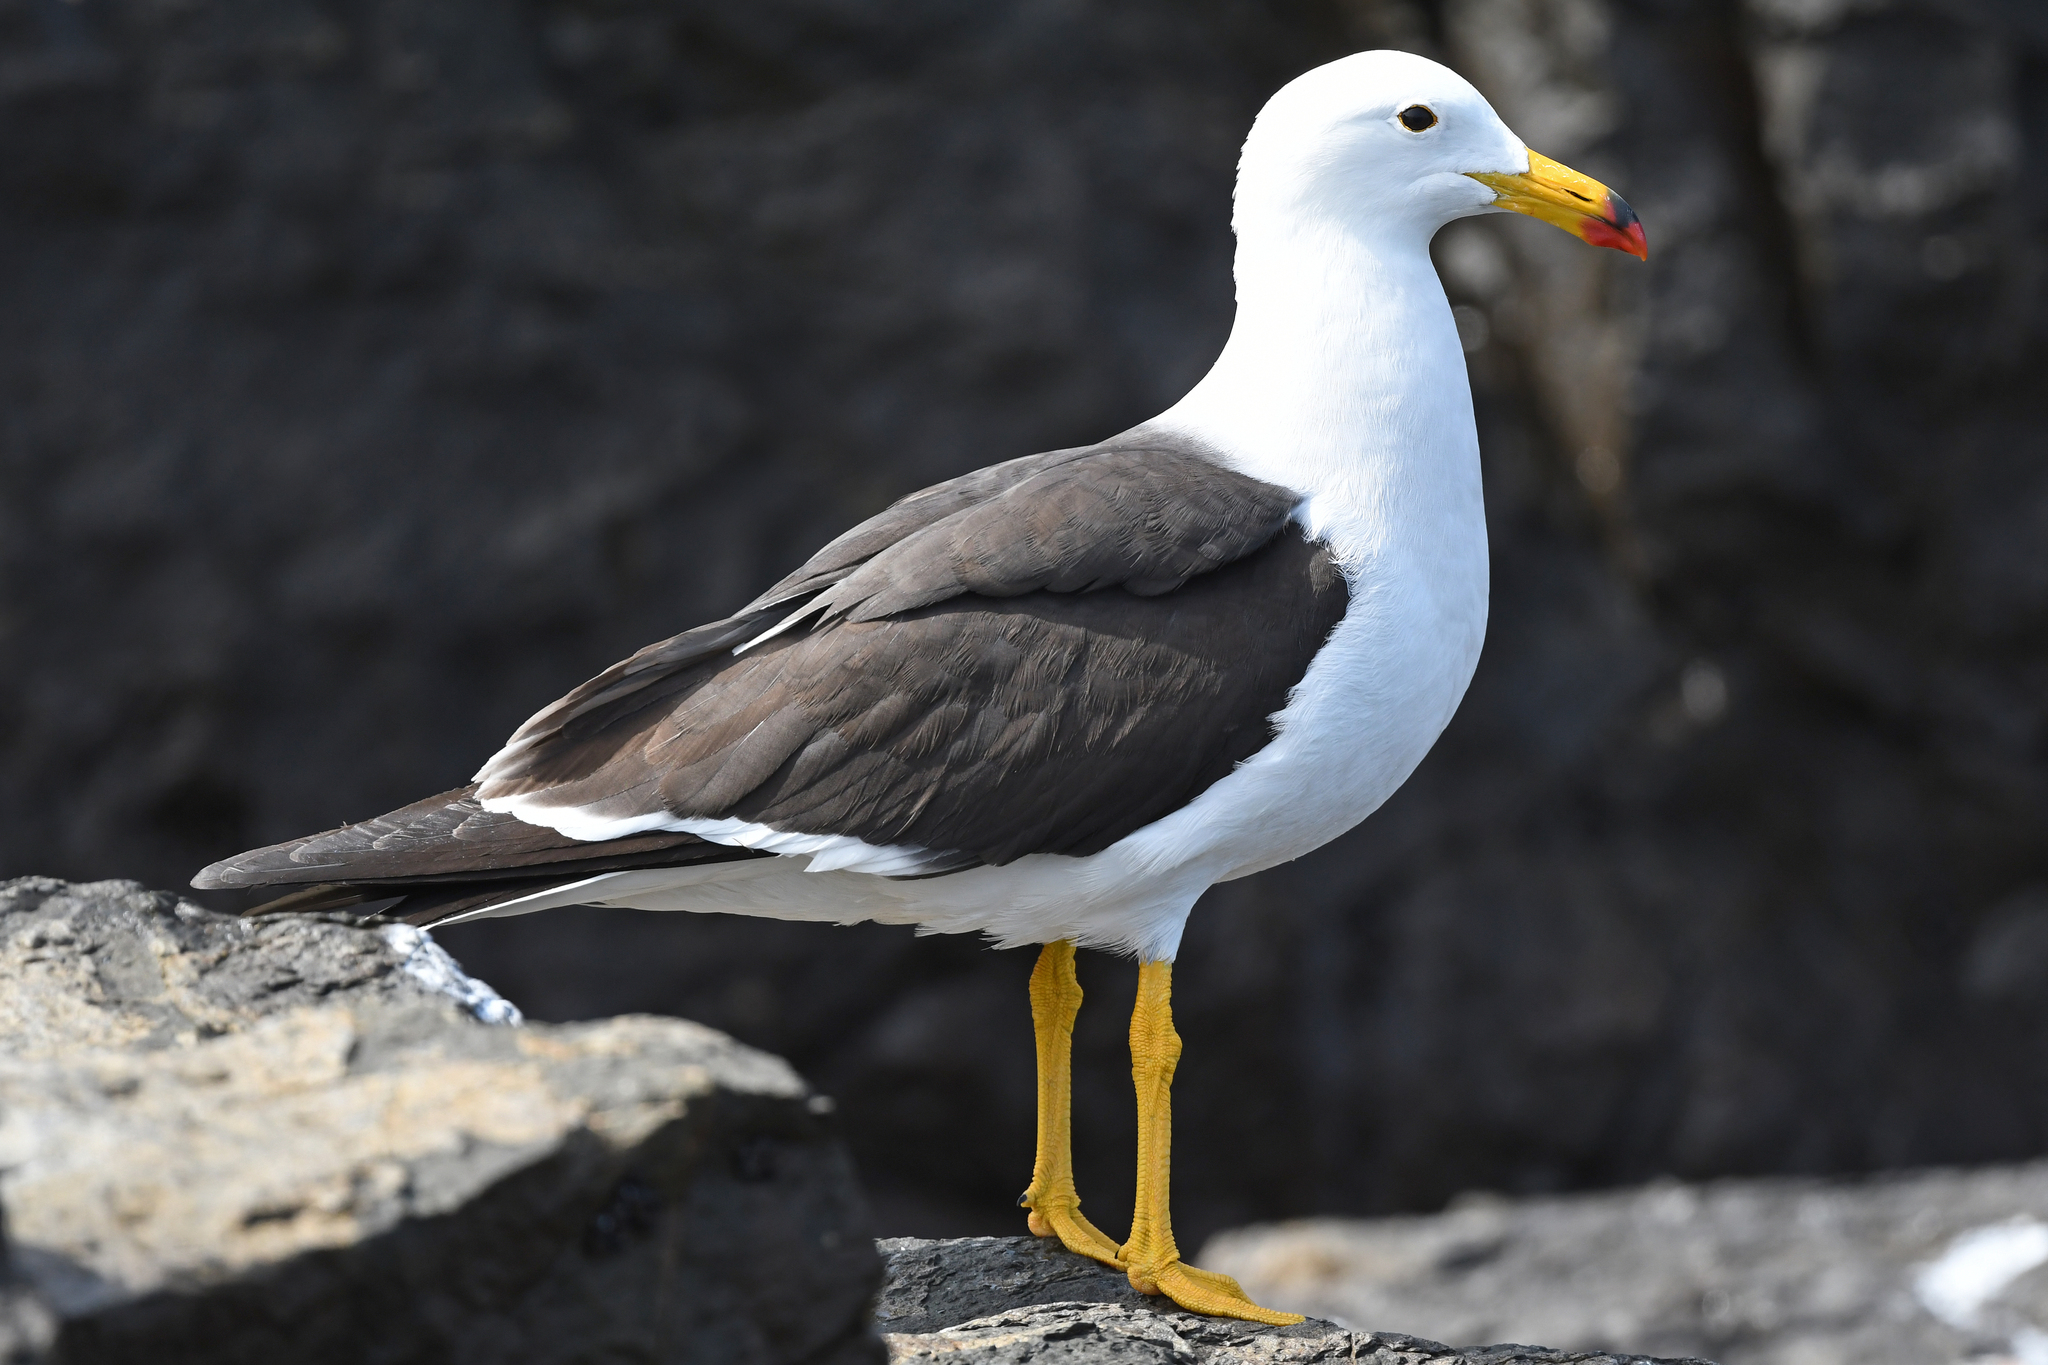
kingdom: Animalia
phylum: Chordata
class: Aves
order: Charadriiformes
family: Laridae
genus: Larus
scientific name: Larus belcheri
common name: Belcher's gull
